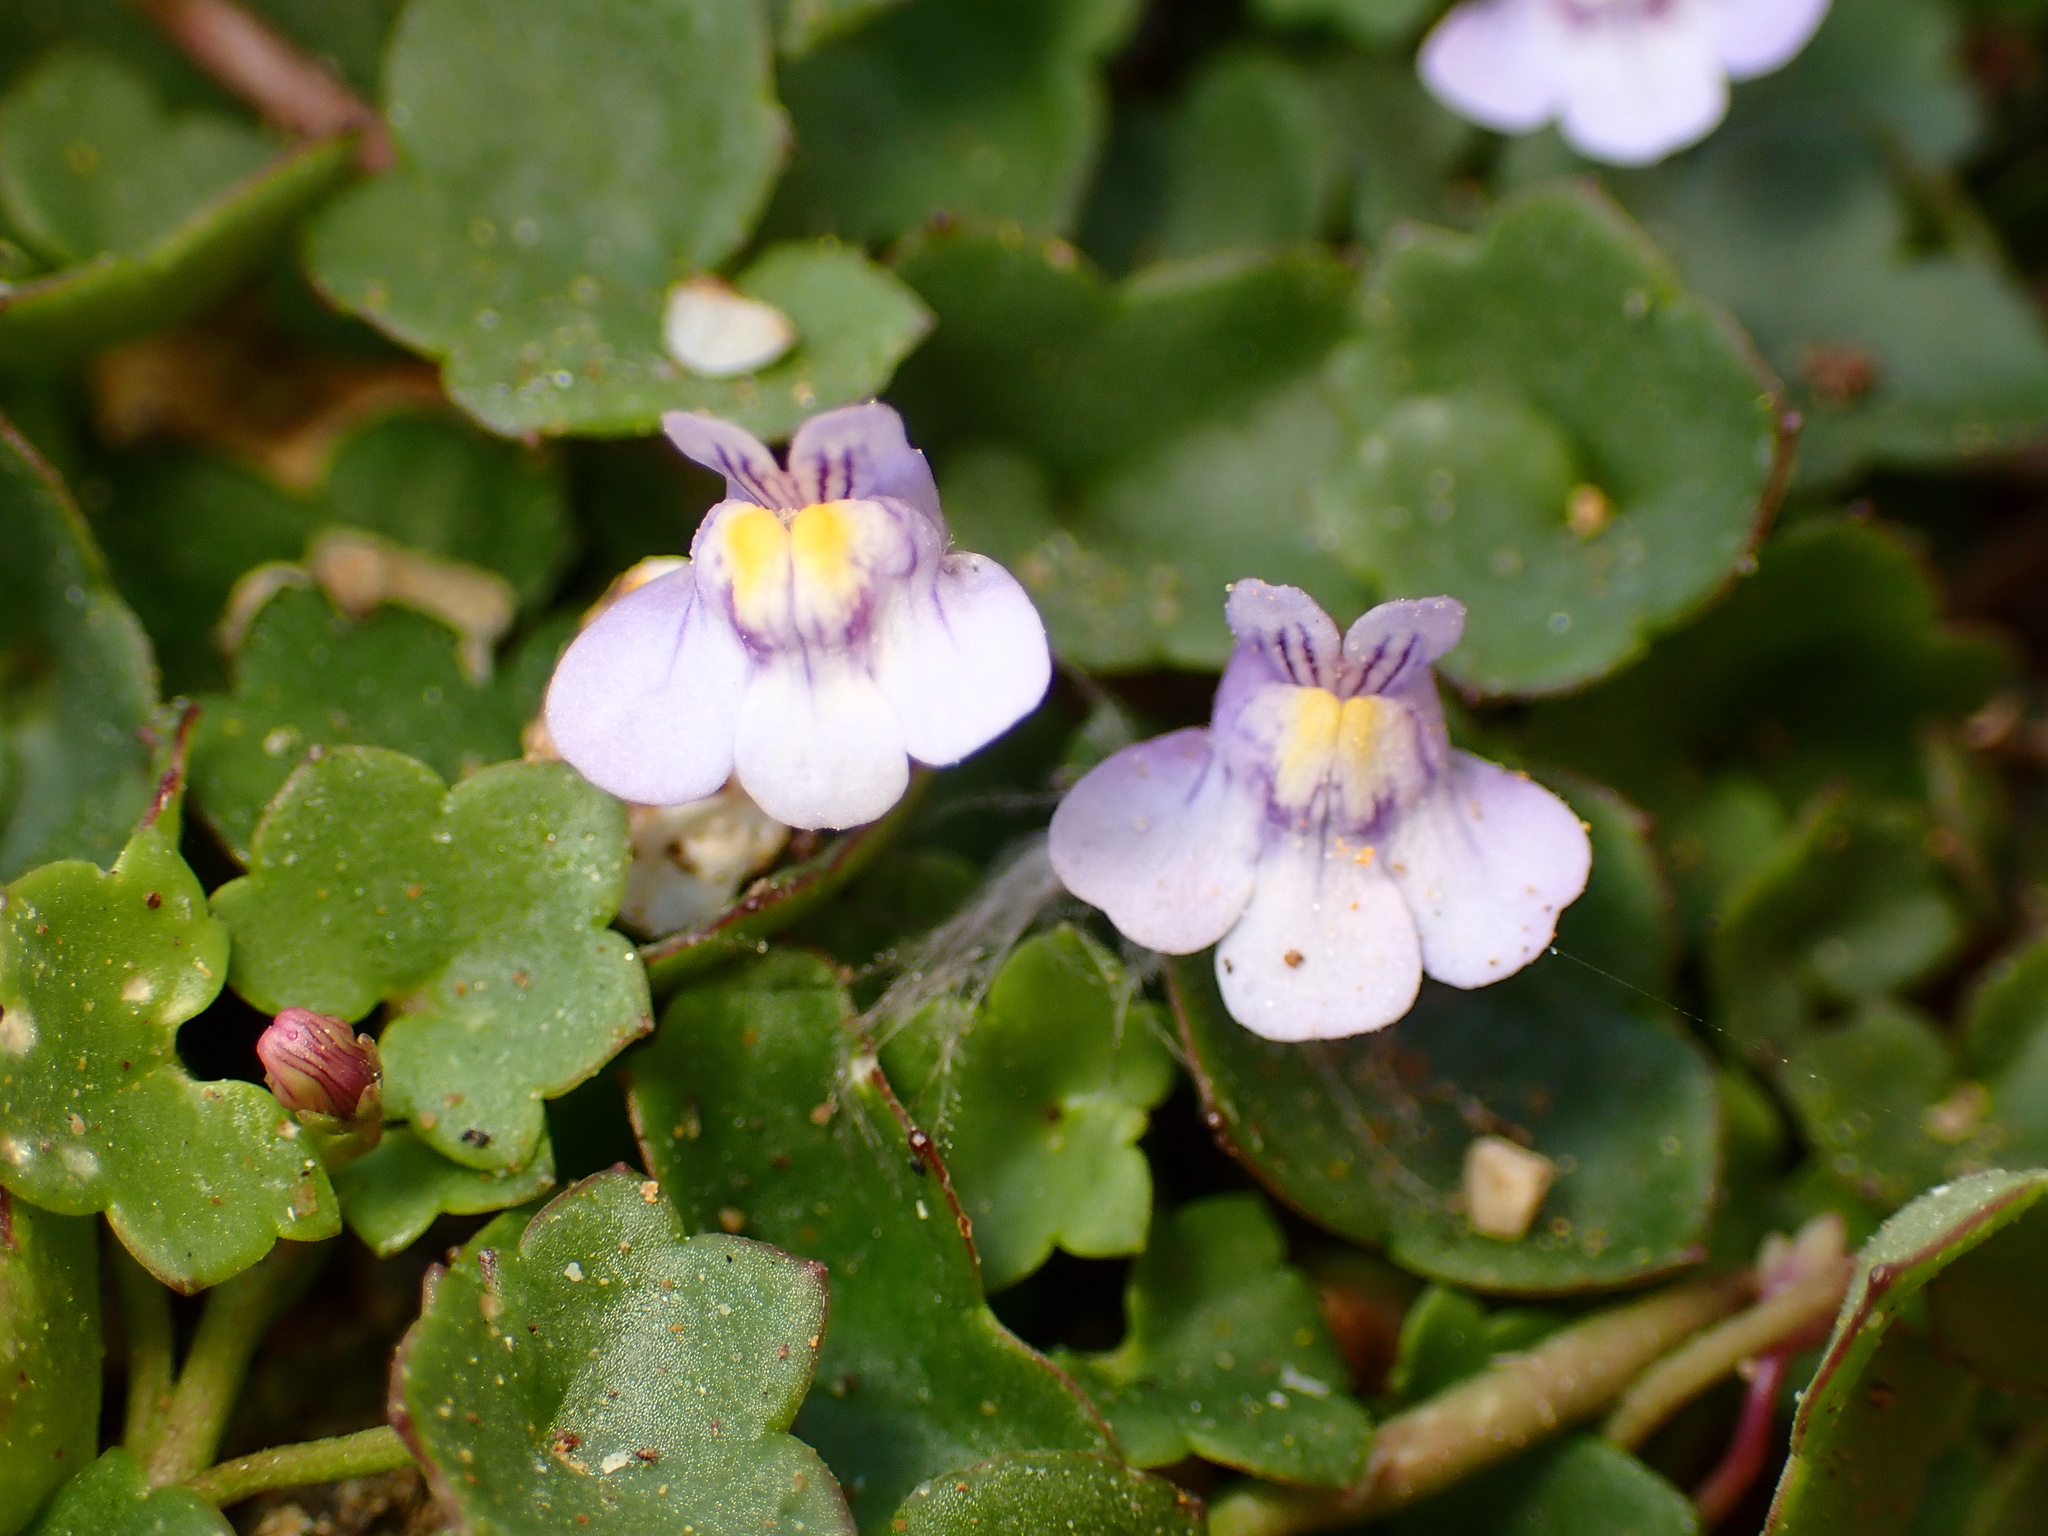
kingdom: Plantae
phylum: Tracheophyta
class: Magnoliopsida
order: Lamiales
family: Plantaginaceae
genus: Cymbalaria
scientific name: Cymbalaria muralis
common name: Ivy-leaved toadflax
